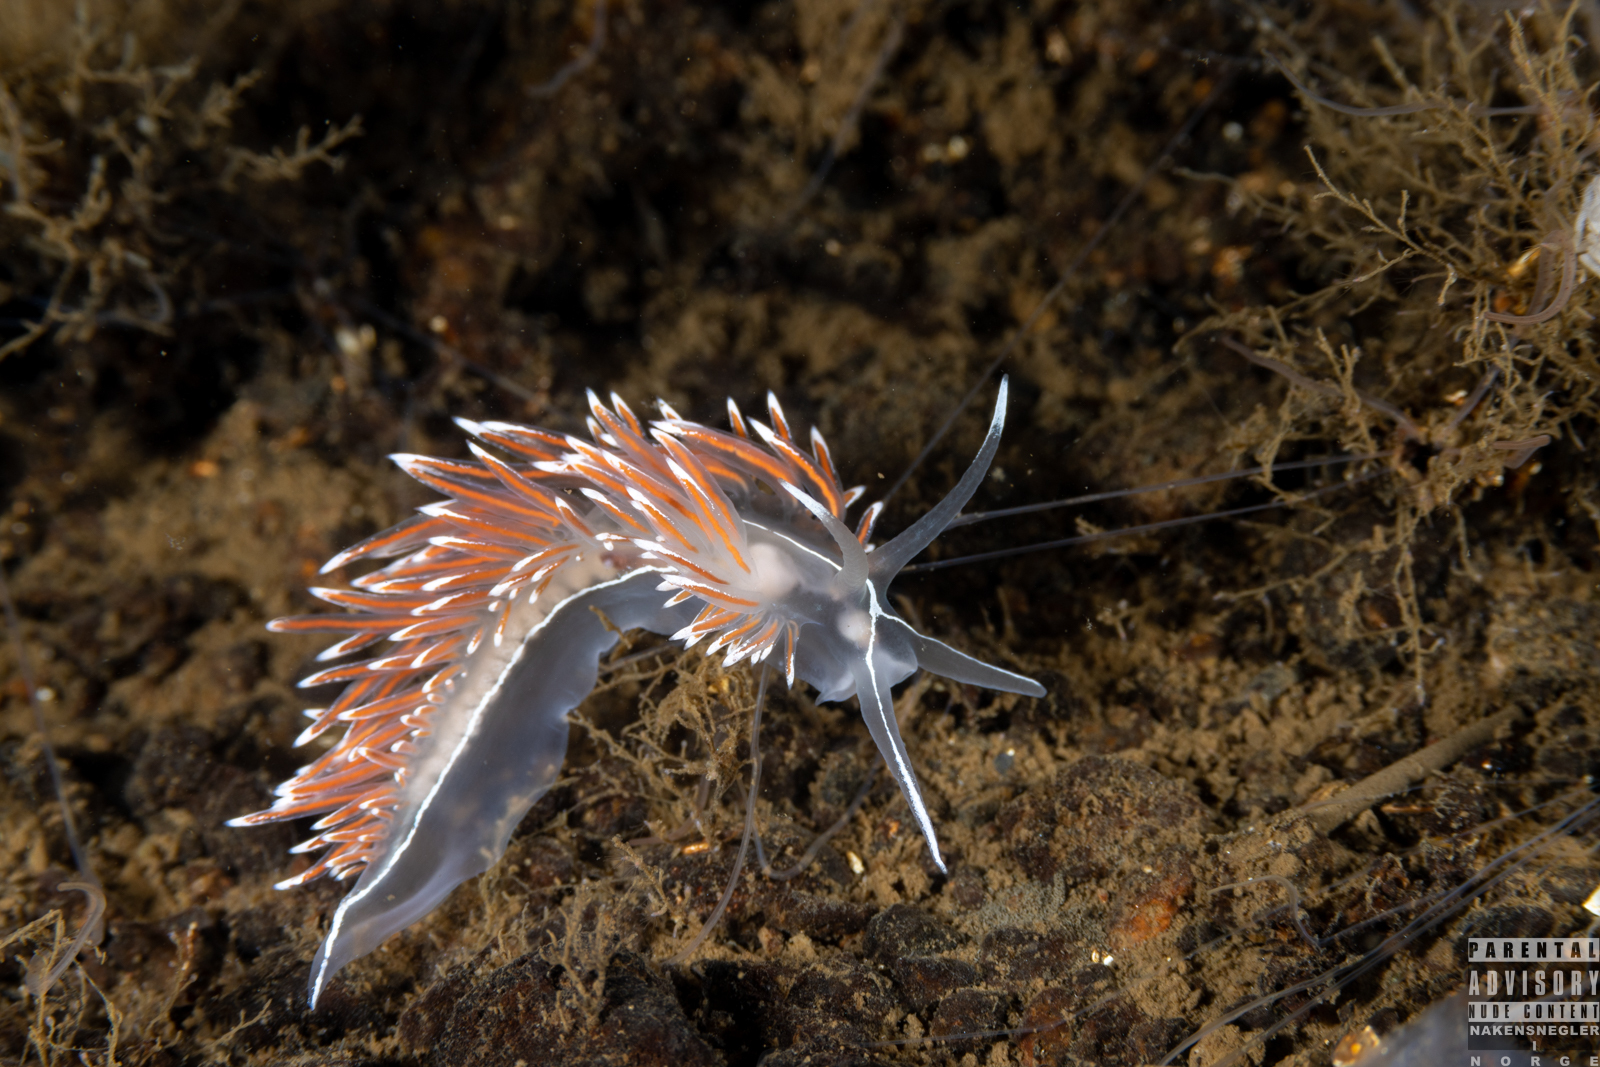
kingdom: Animalia
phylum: Mollusca
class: Gastropoda
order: Nudibranchia
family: Coryphellidae
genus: Coryphella
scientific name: Coryphella lineata
